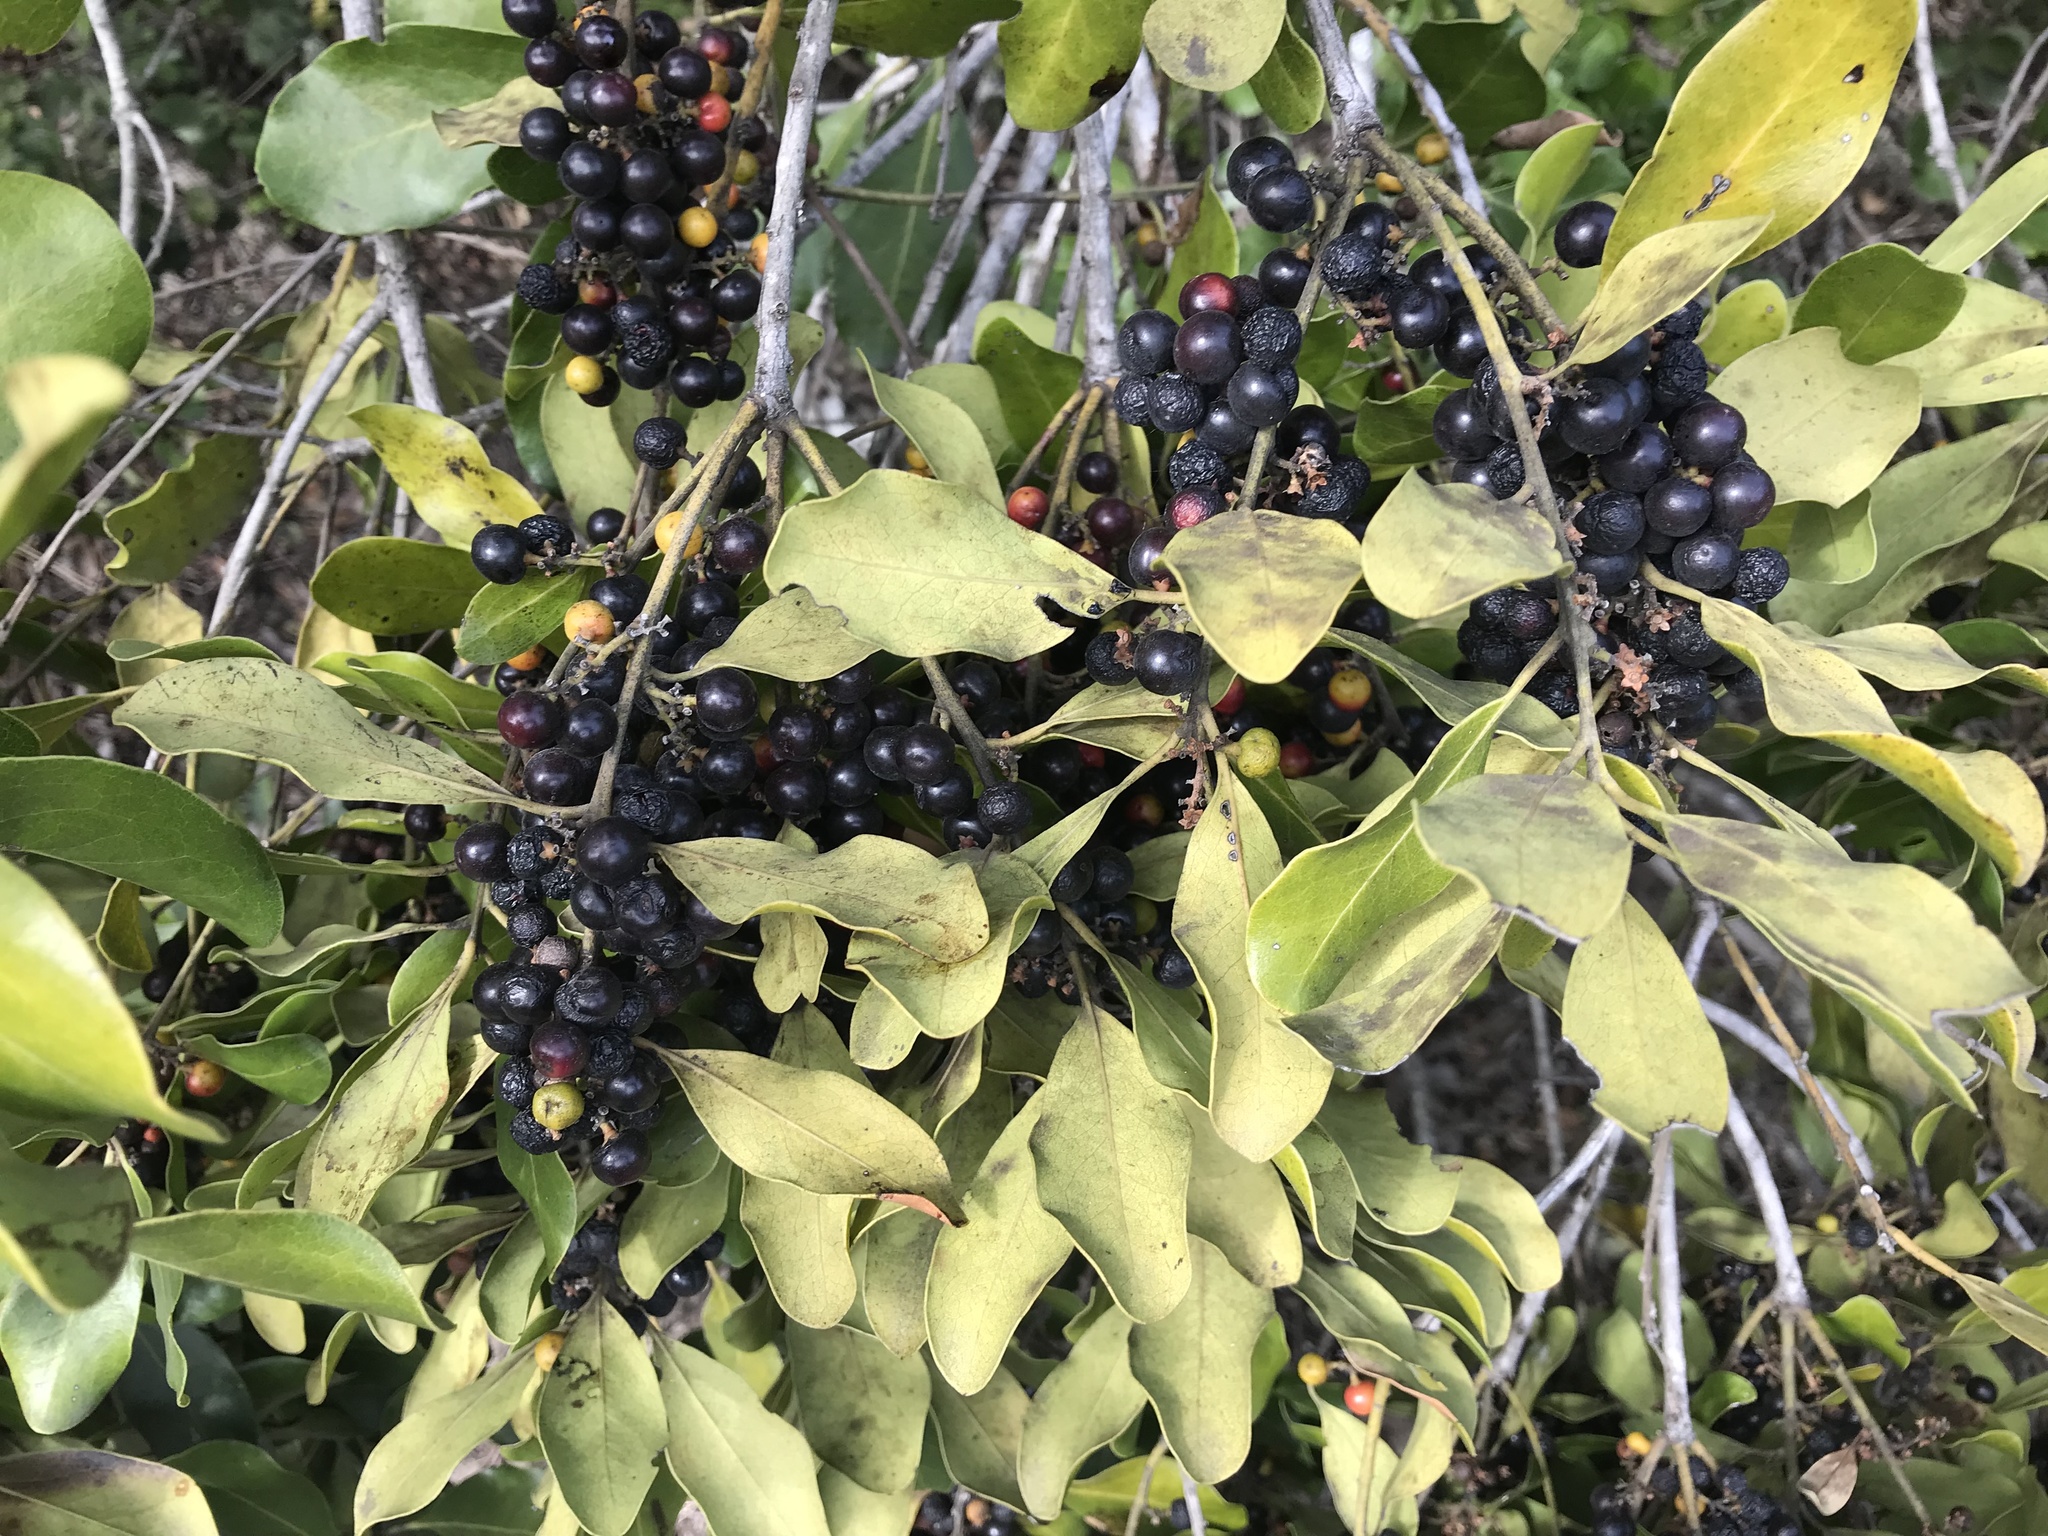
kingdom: Plantae
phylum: Tracheophyta
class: Magnoliopsida
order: Ericales
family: Ebenaceae
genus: Euclea
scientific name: Euclea natalensis
